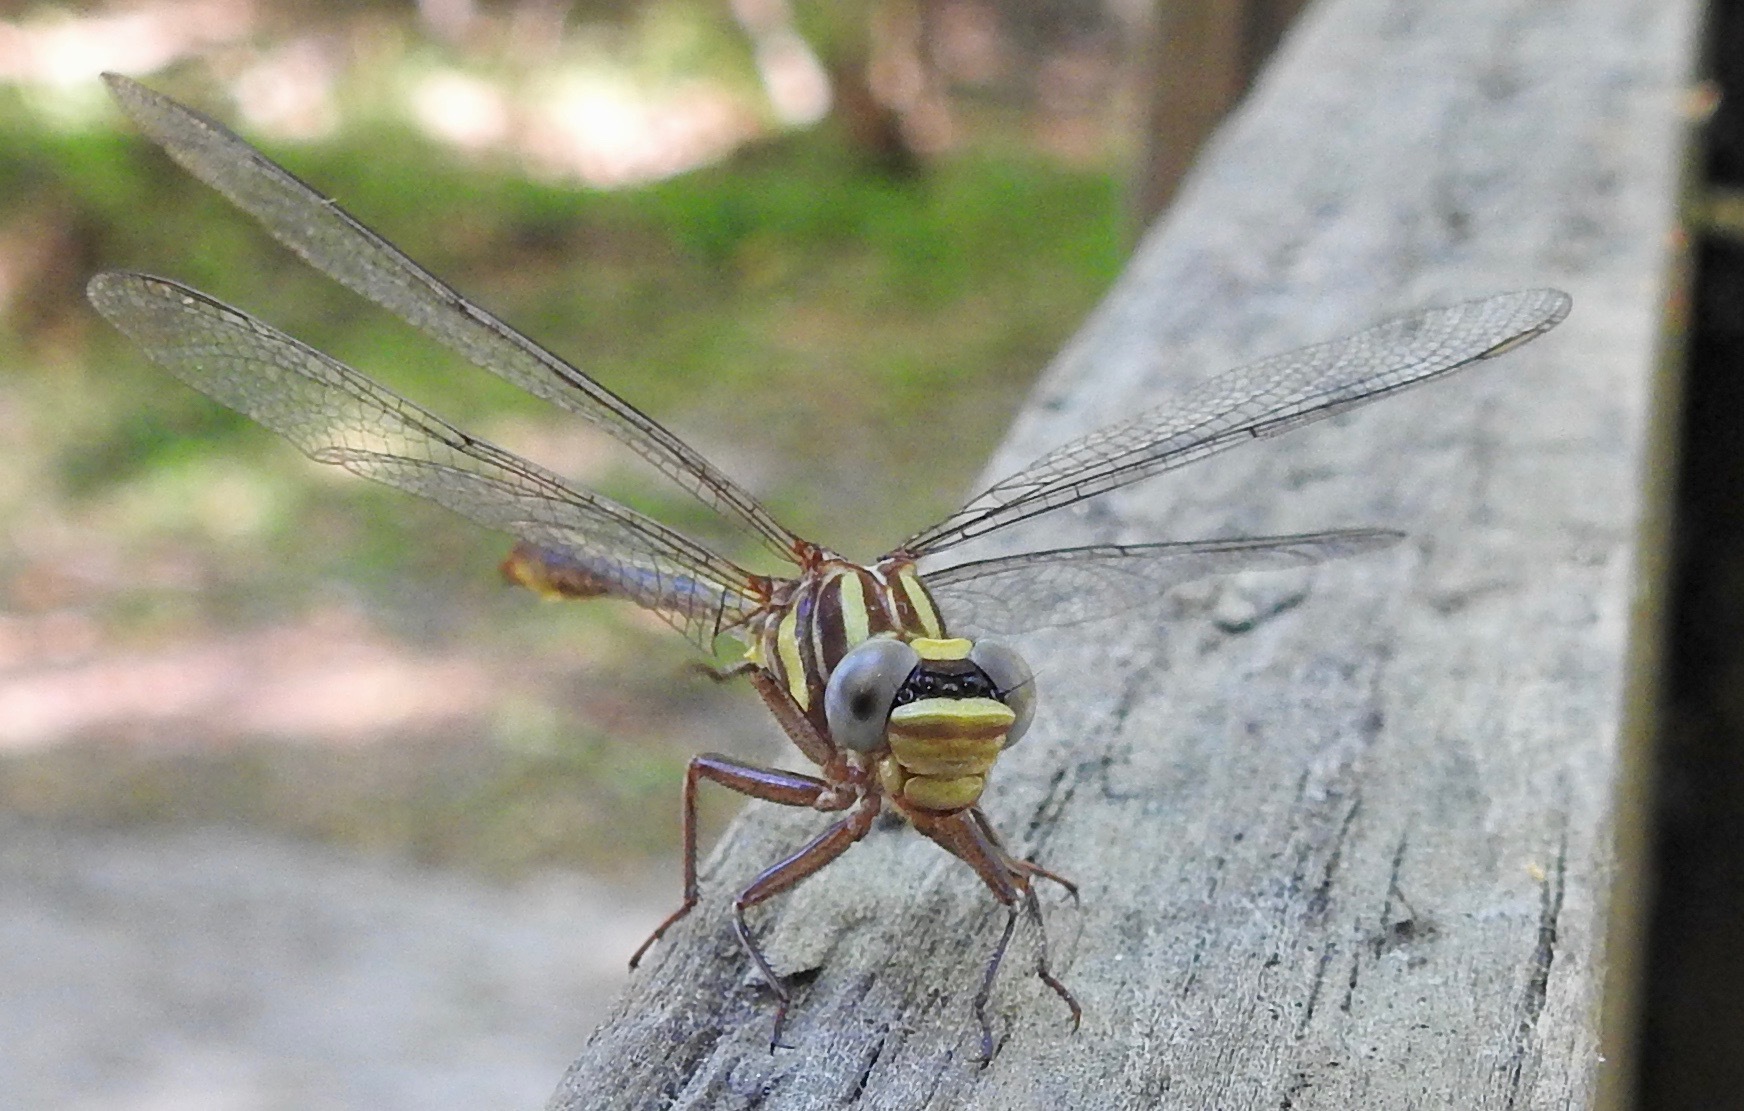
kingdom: Animalia
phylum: Arthropoda
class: Insecta
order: Odonata
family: Gomphidae
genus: Phanogomphus
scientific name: Phanogomphus minutus
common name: Cypress clubtail
